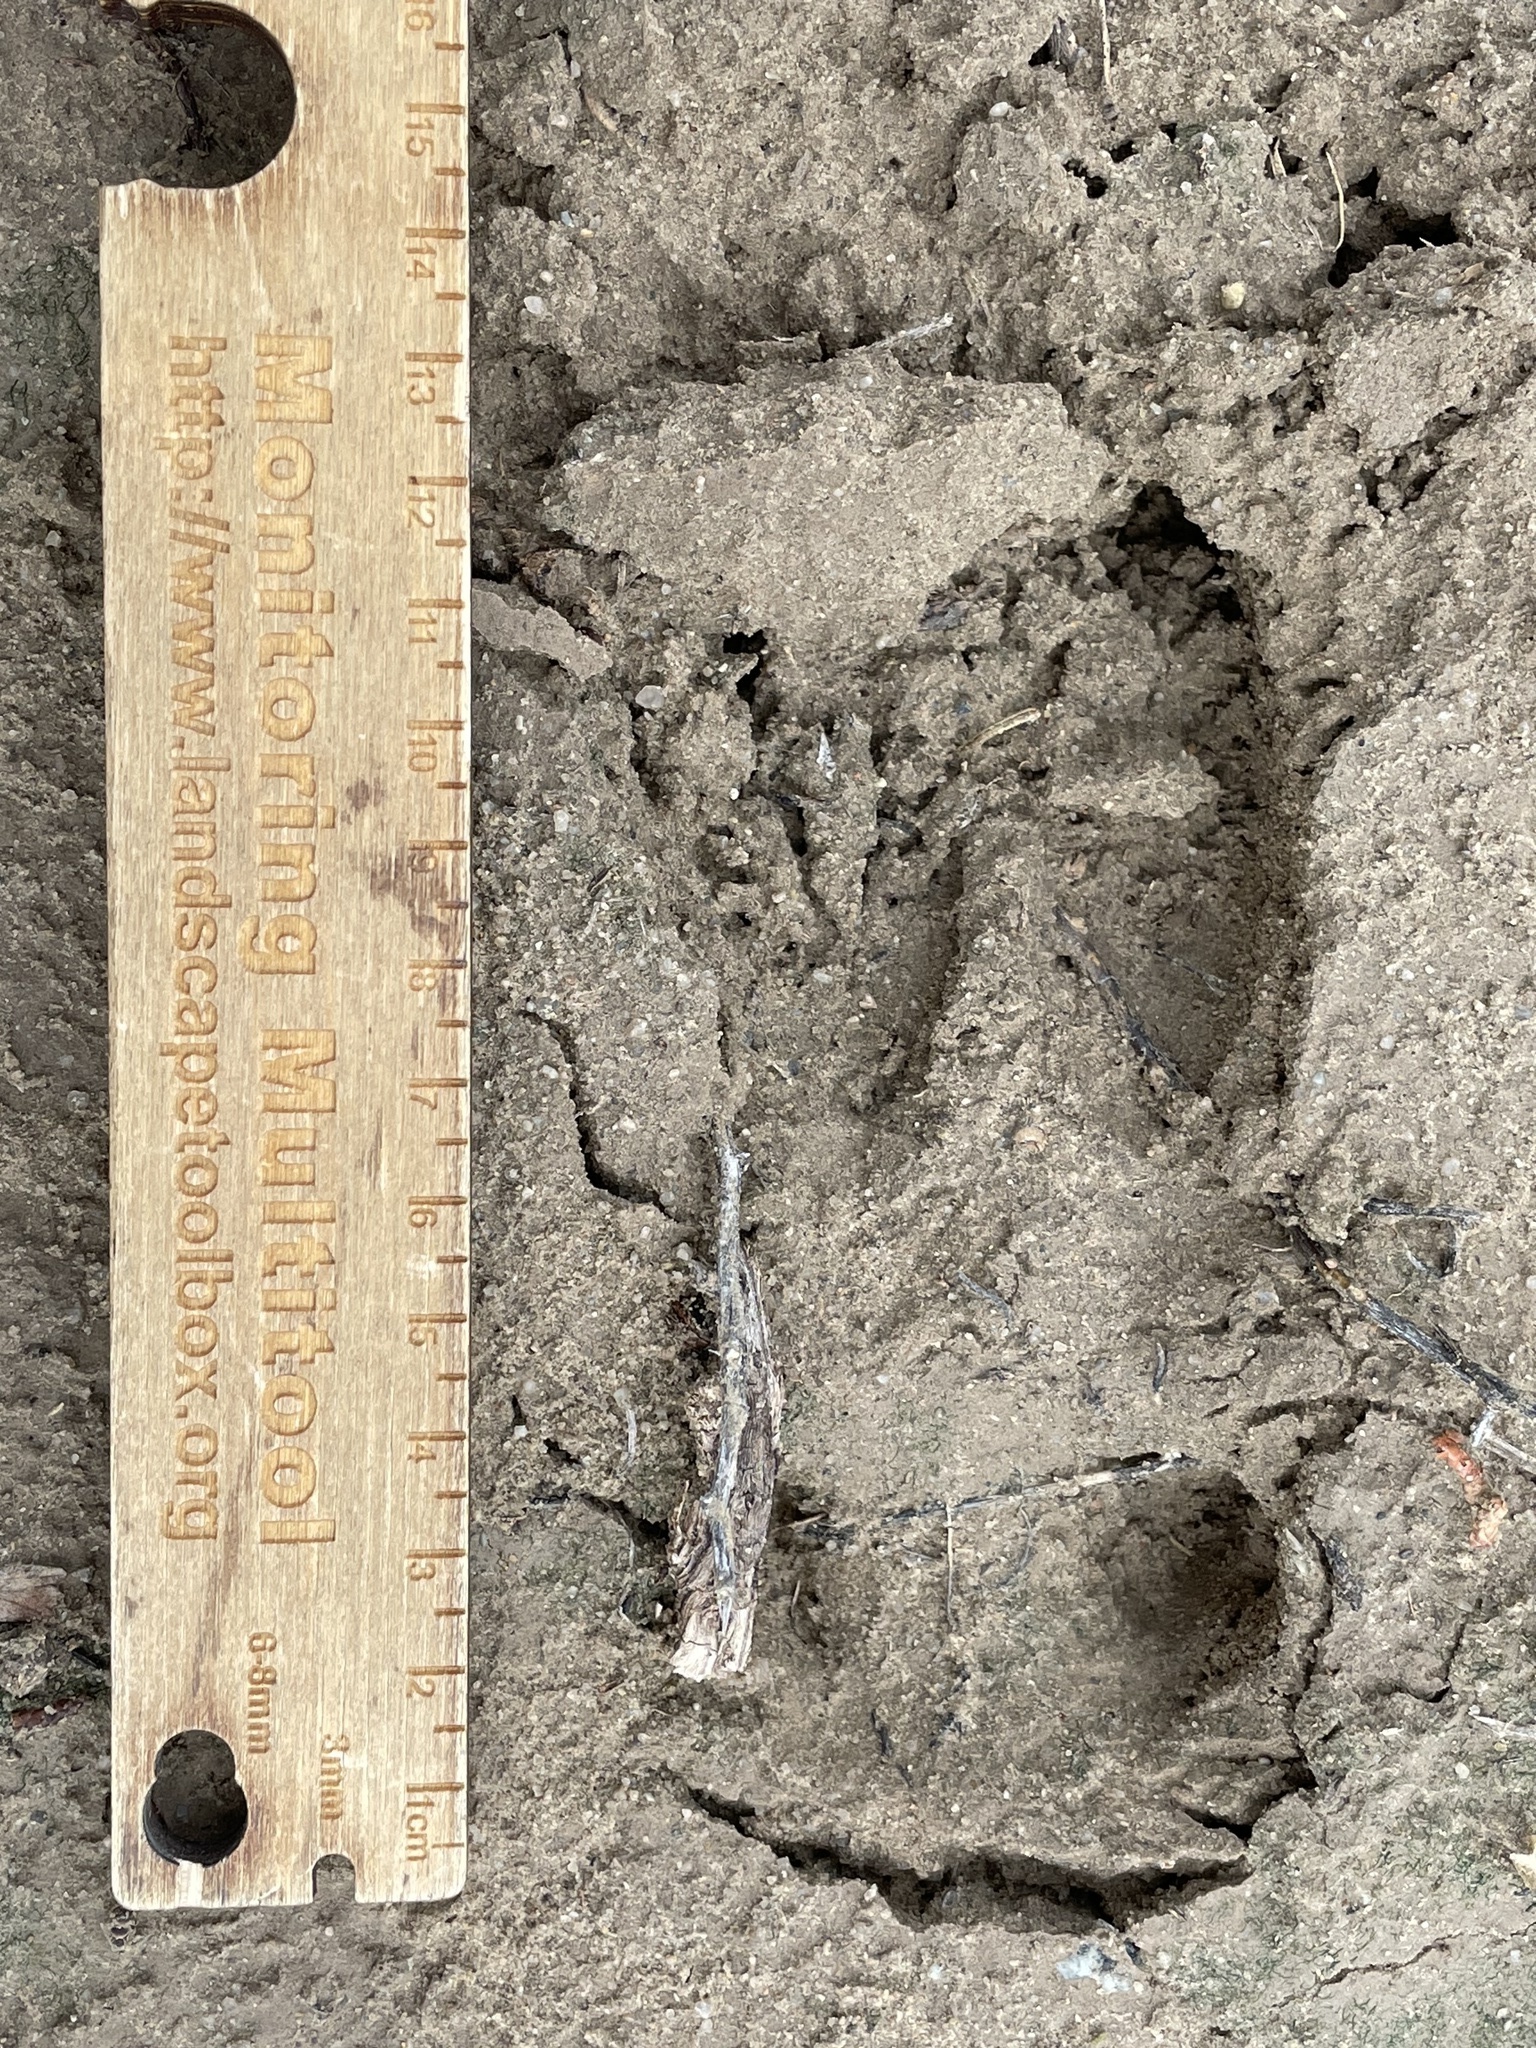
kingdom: Animalia
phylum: Chordata
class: Mammalia
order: Artiodactyla
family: Cervidae
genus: Odocoileus
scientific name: Odocoileus hemionus
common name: Mule deer
